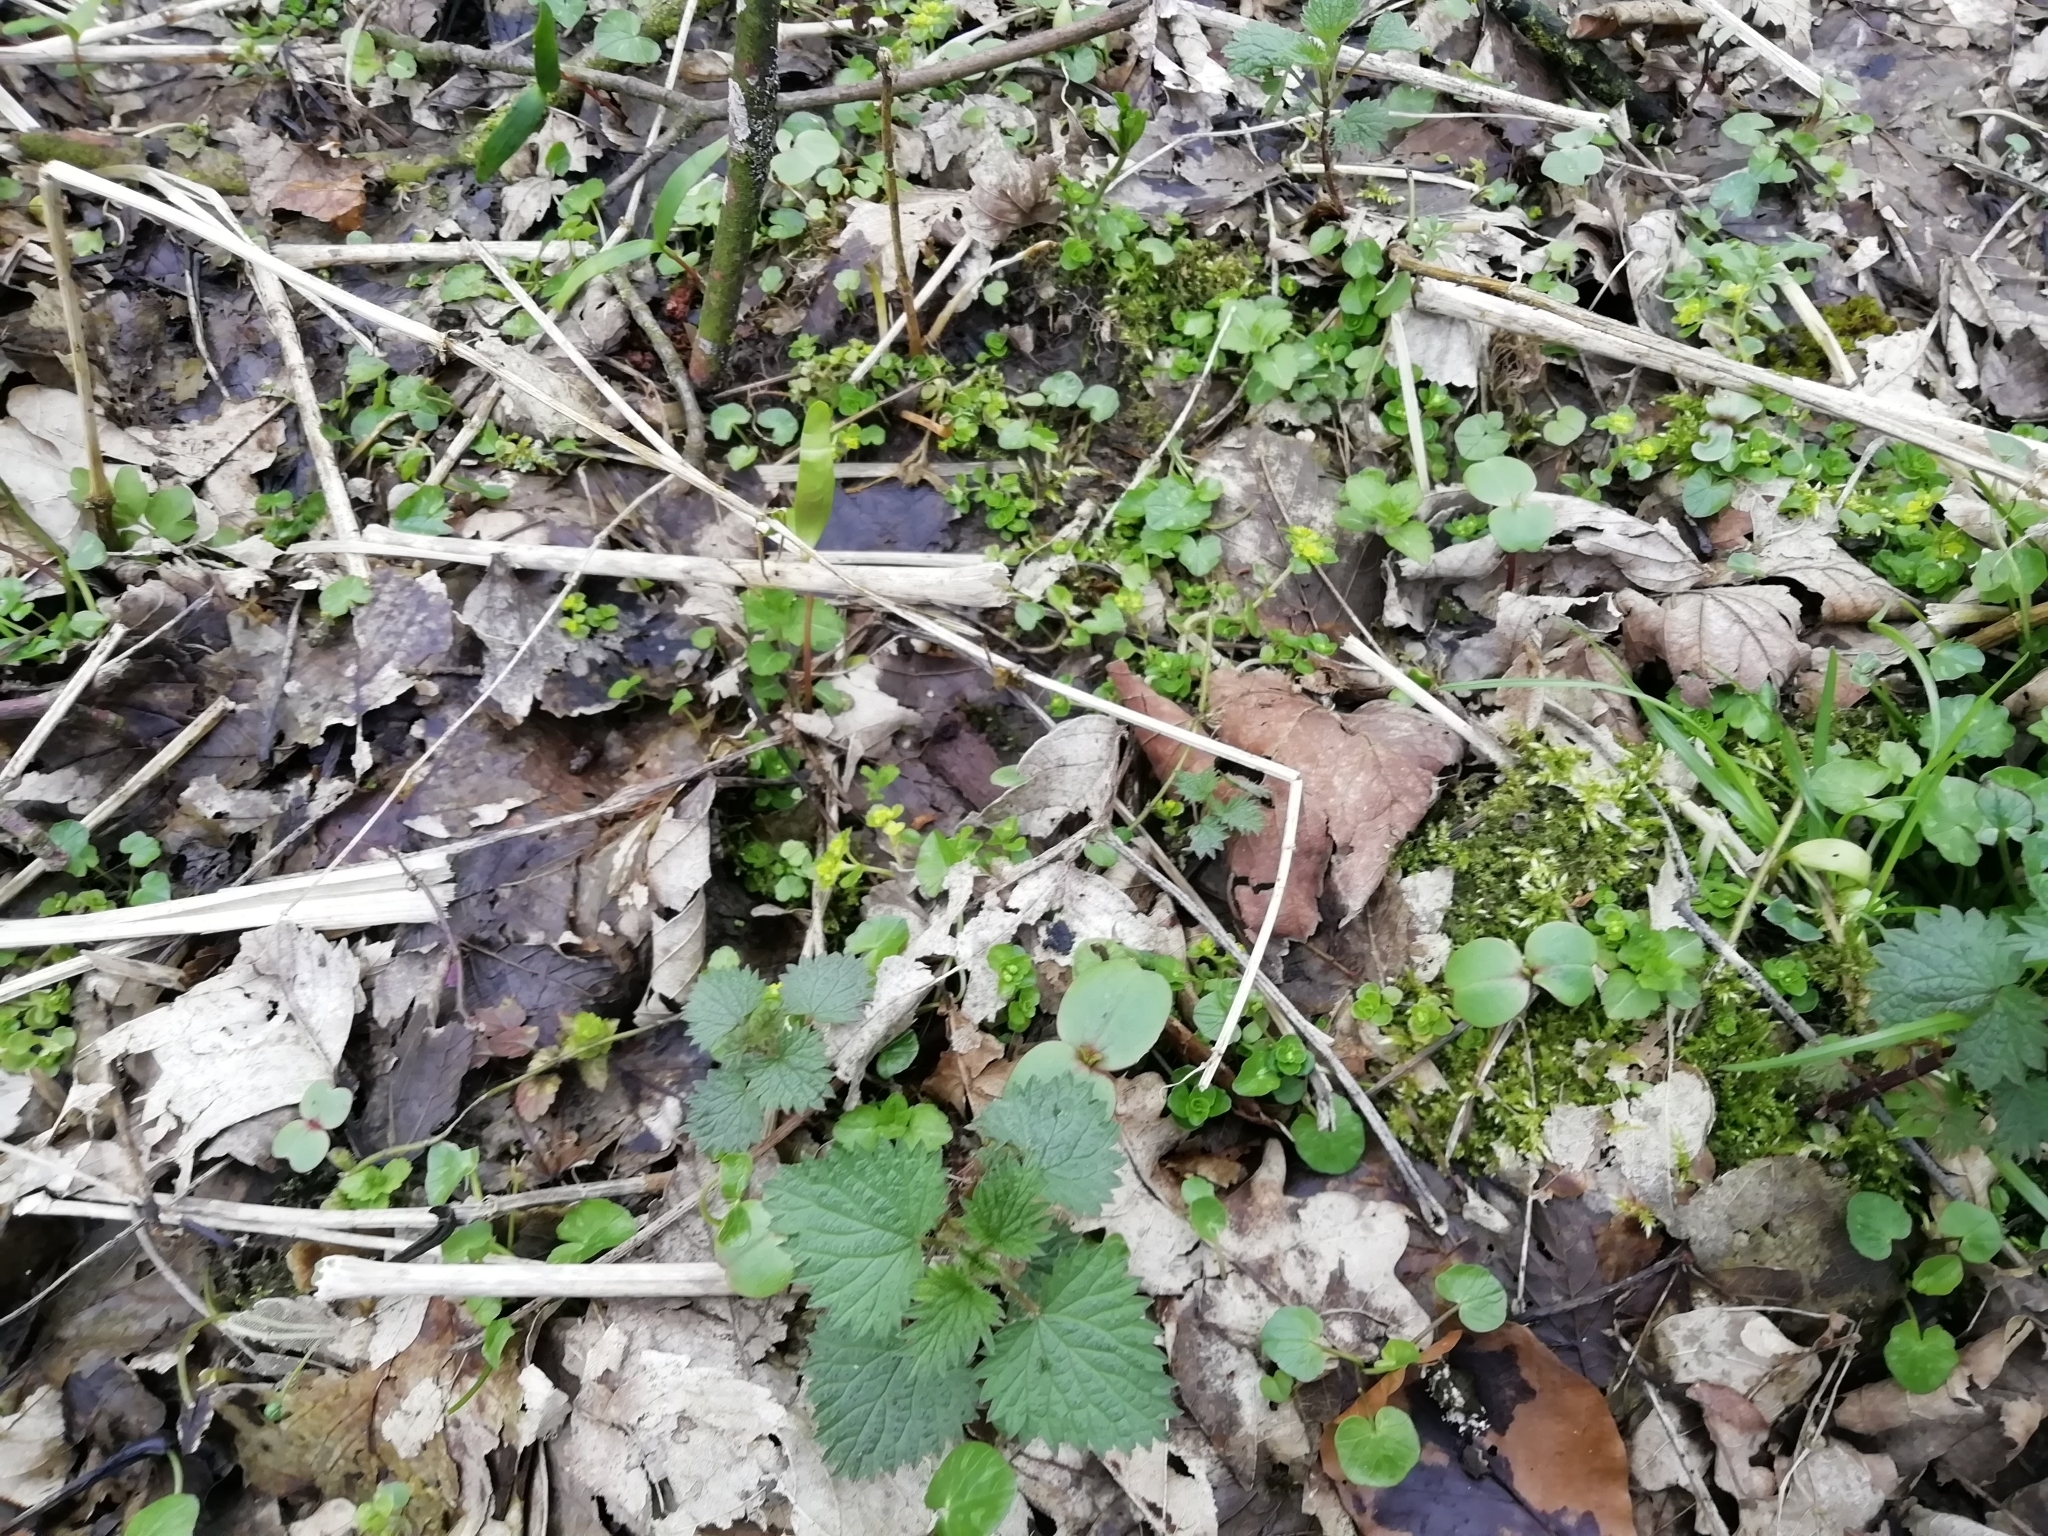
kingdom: Plantae
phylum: Tracheophyta
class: Magnoliopsida
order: Ericales
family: Balsaminaceae
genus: Impatiens
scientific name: Impatiens glandulifera
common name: Himalayan balsam
